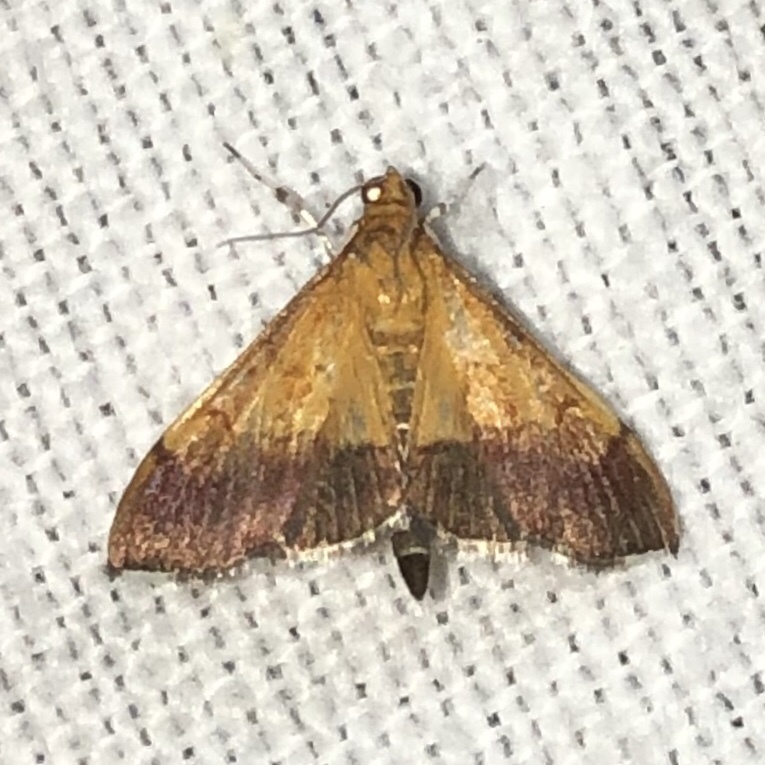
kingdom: Animalia
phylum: Arthropoda
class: Insecta
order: Lepidoptera
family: Crambidae
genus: Pyrausta
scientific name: Pyrausta bicoloralis
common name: Bicolored pyrausta moth
